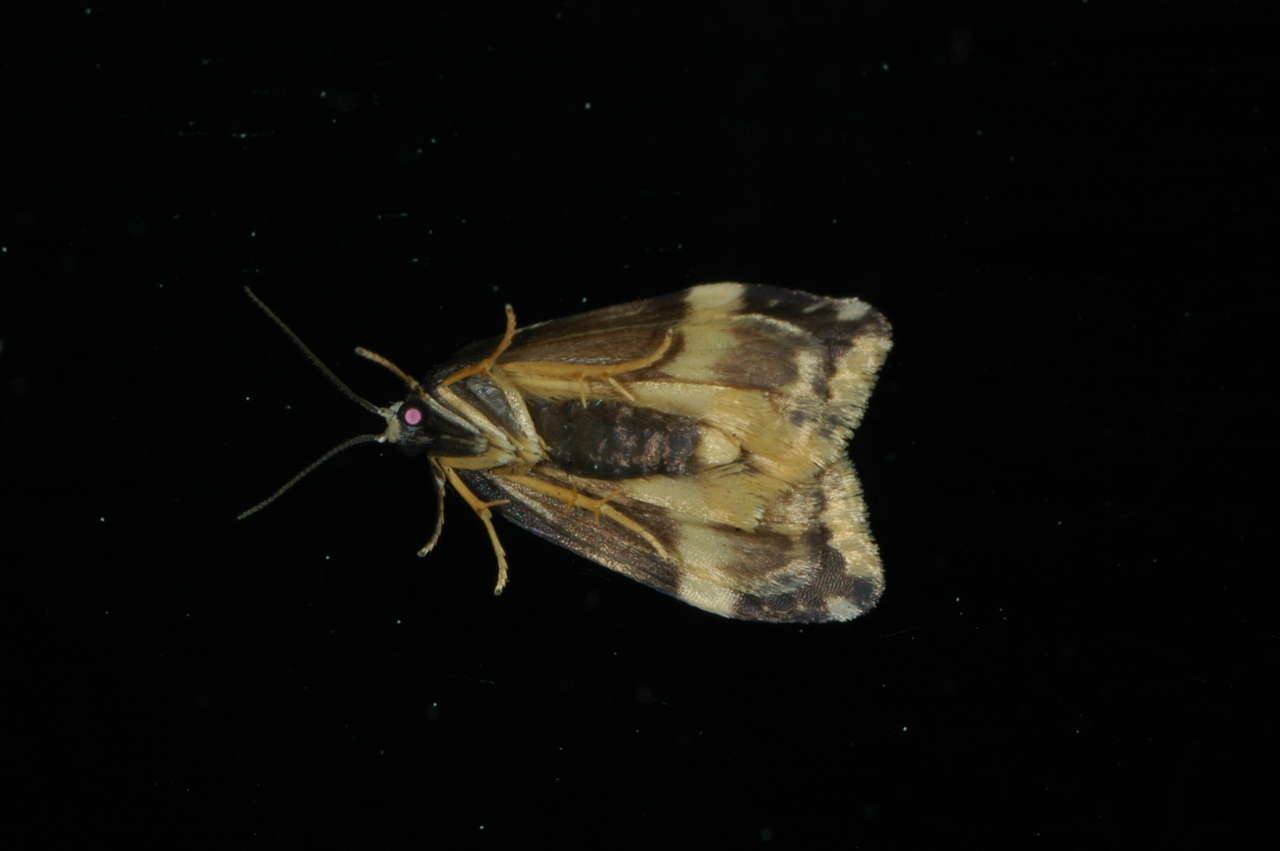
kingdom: Animalia
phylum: Arthropoda
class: Insecta
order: Lepidoptera
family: Erebidae
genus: Halone
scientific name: Halone sejuncta
